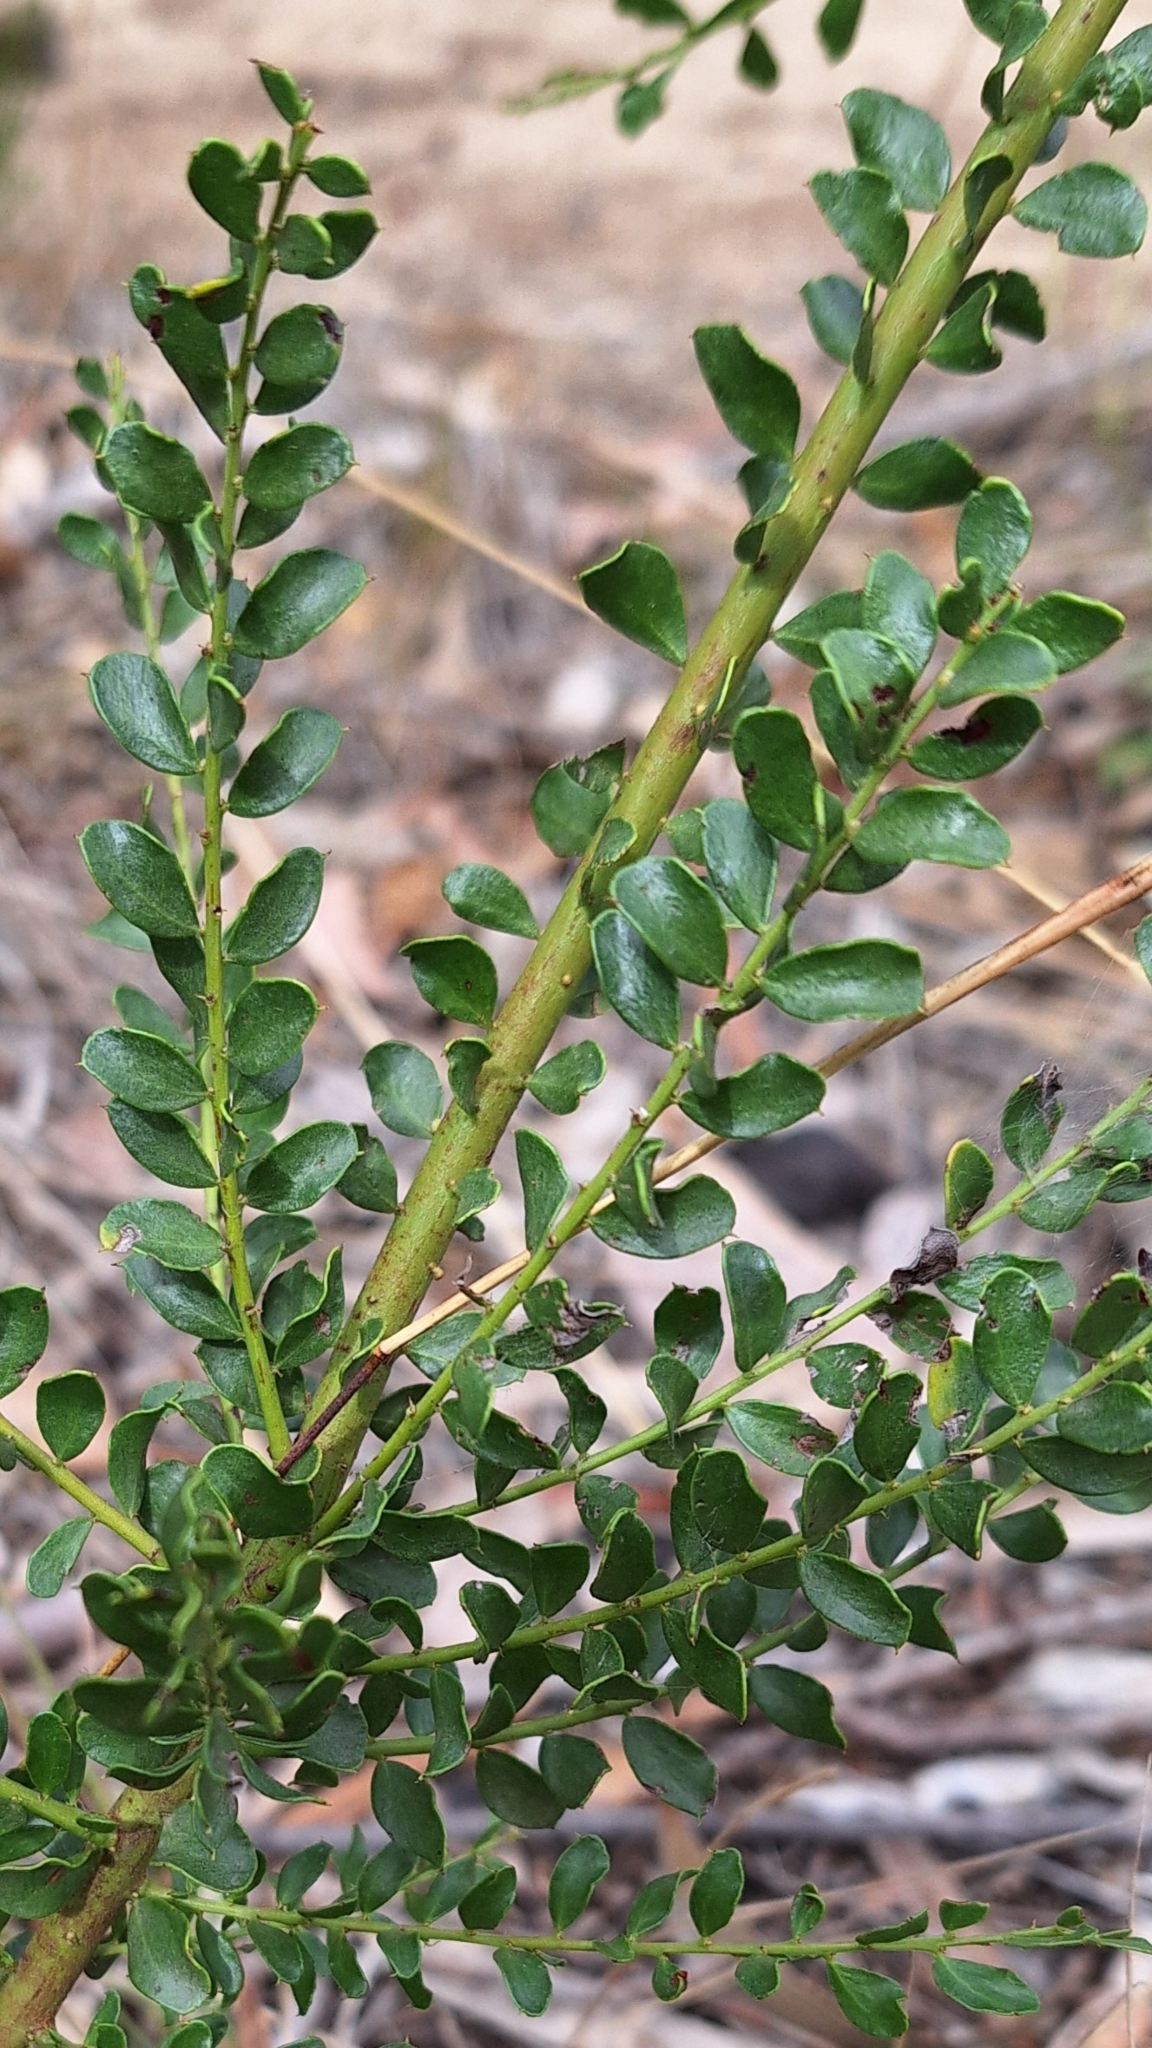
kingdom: Plantae
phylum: Tracheophyta
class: Magnoliopsida
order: Fabales
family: Fabaceae
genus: Acacia
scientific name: Acacia acinacea
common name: Gold-dust acacia
